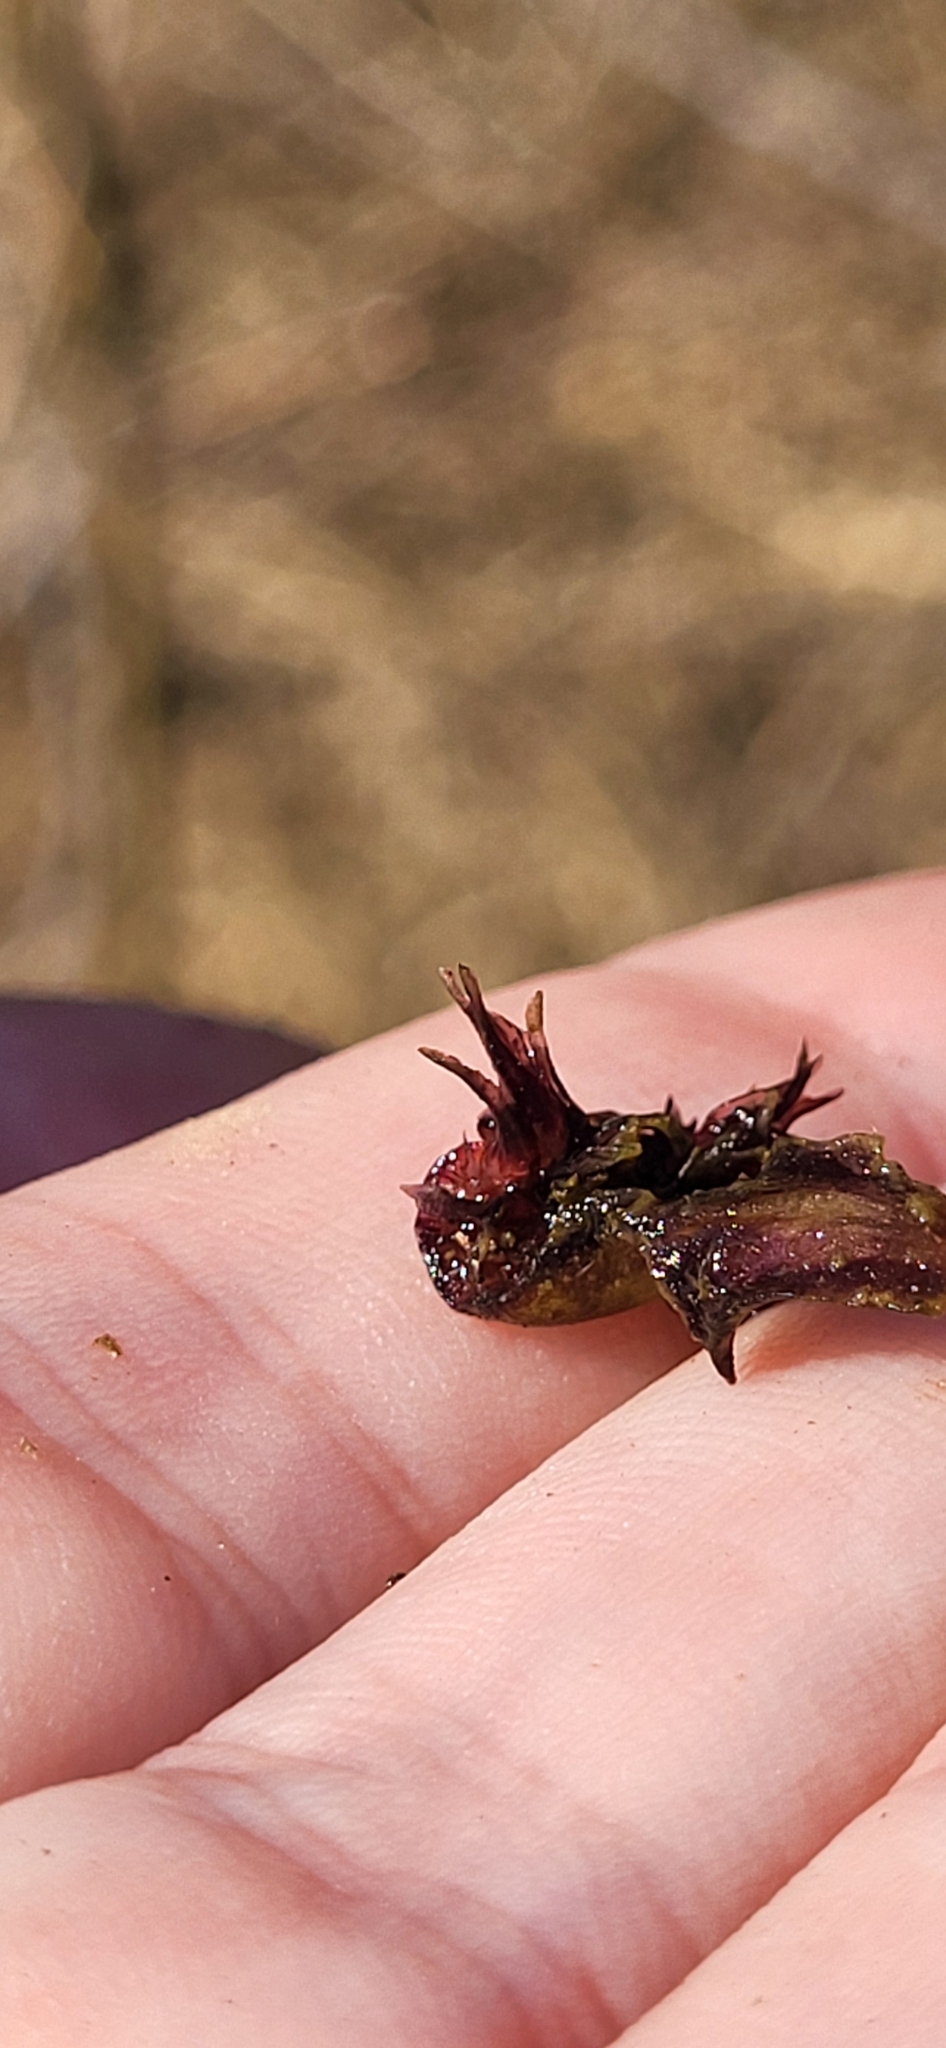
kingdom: Plantae
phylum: Marchantiophyta
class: Marchantiopsida
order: Marchantiales
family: Ricciaceae
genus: Ricciocarpos
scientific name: Ricciocarpos natans
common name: Purple-fringed liverwort
